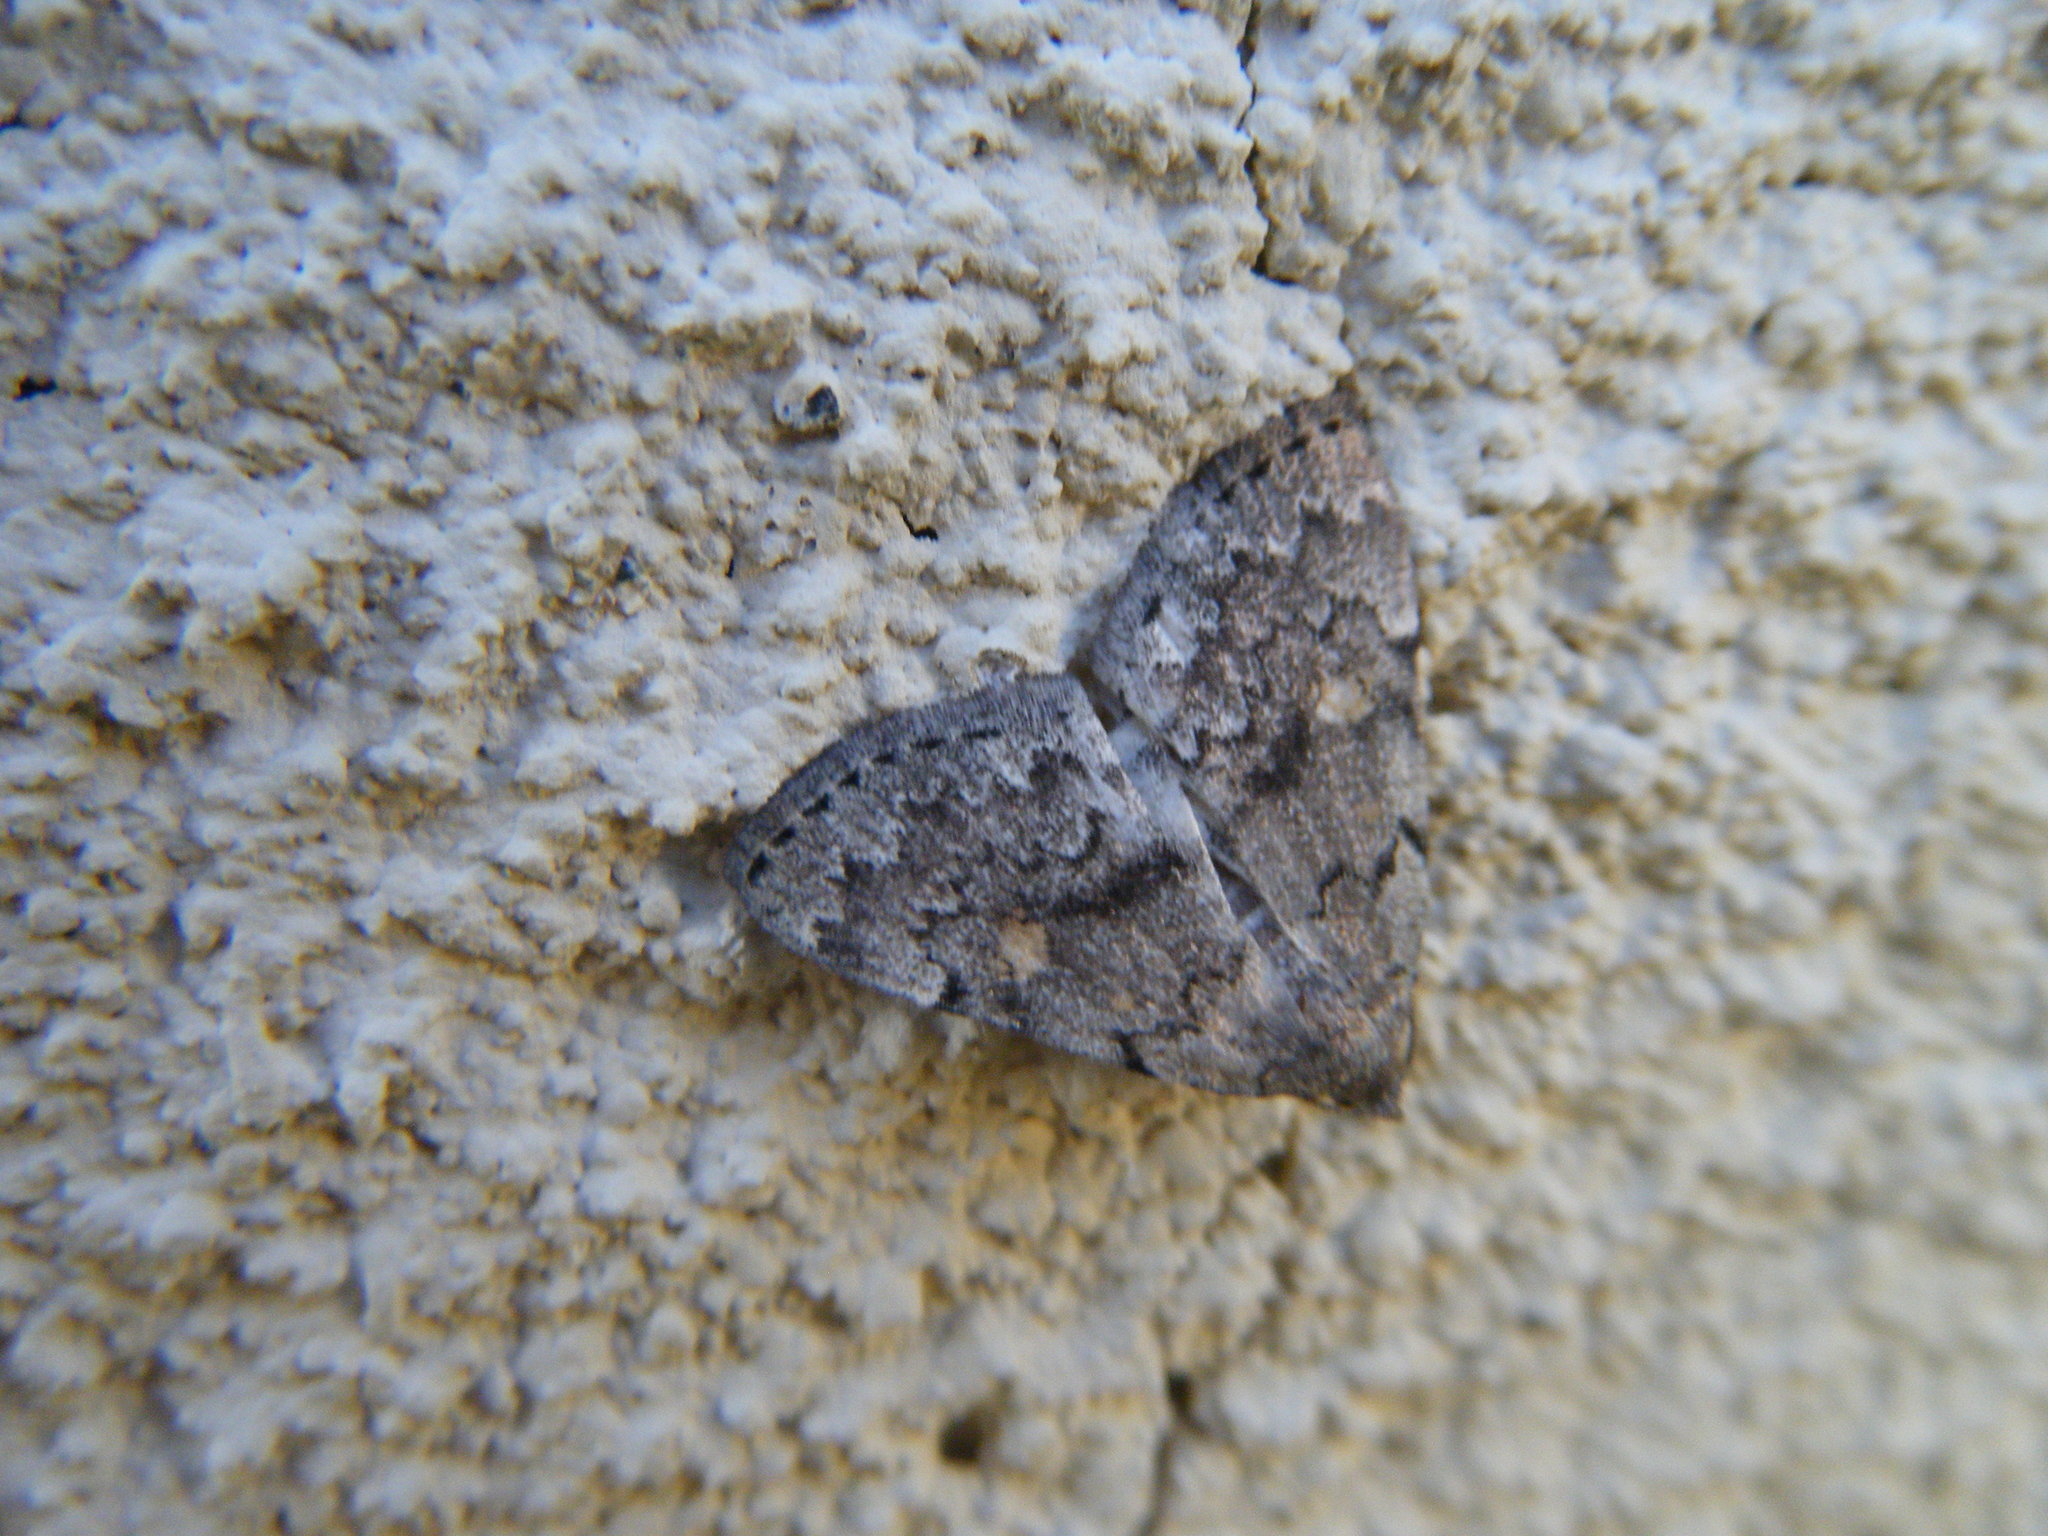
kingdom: Animalia
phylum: Arthropoda
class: Insecta
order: Lepidoptera
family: Erebidae
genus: Idia
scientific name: Idia aemula
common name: Common idia moth
